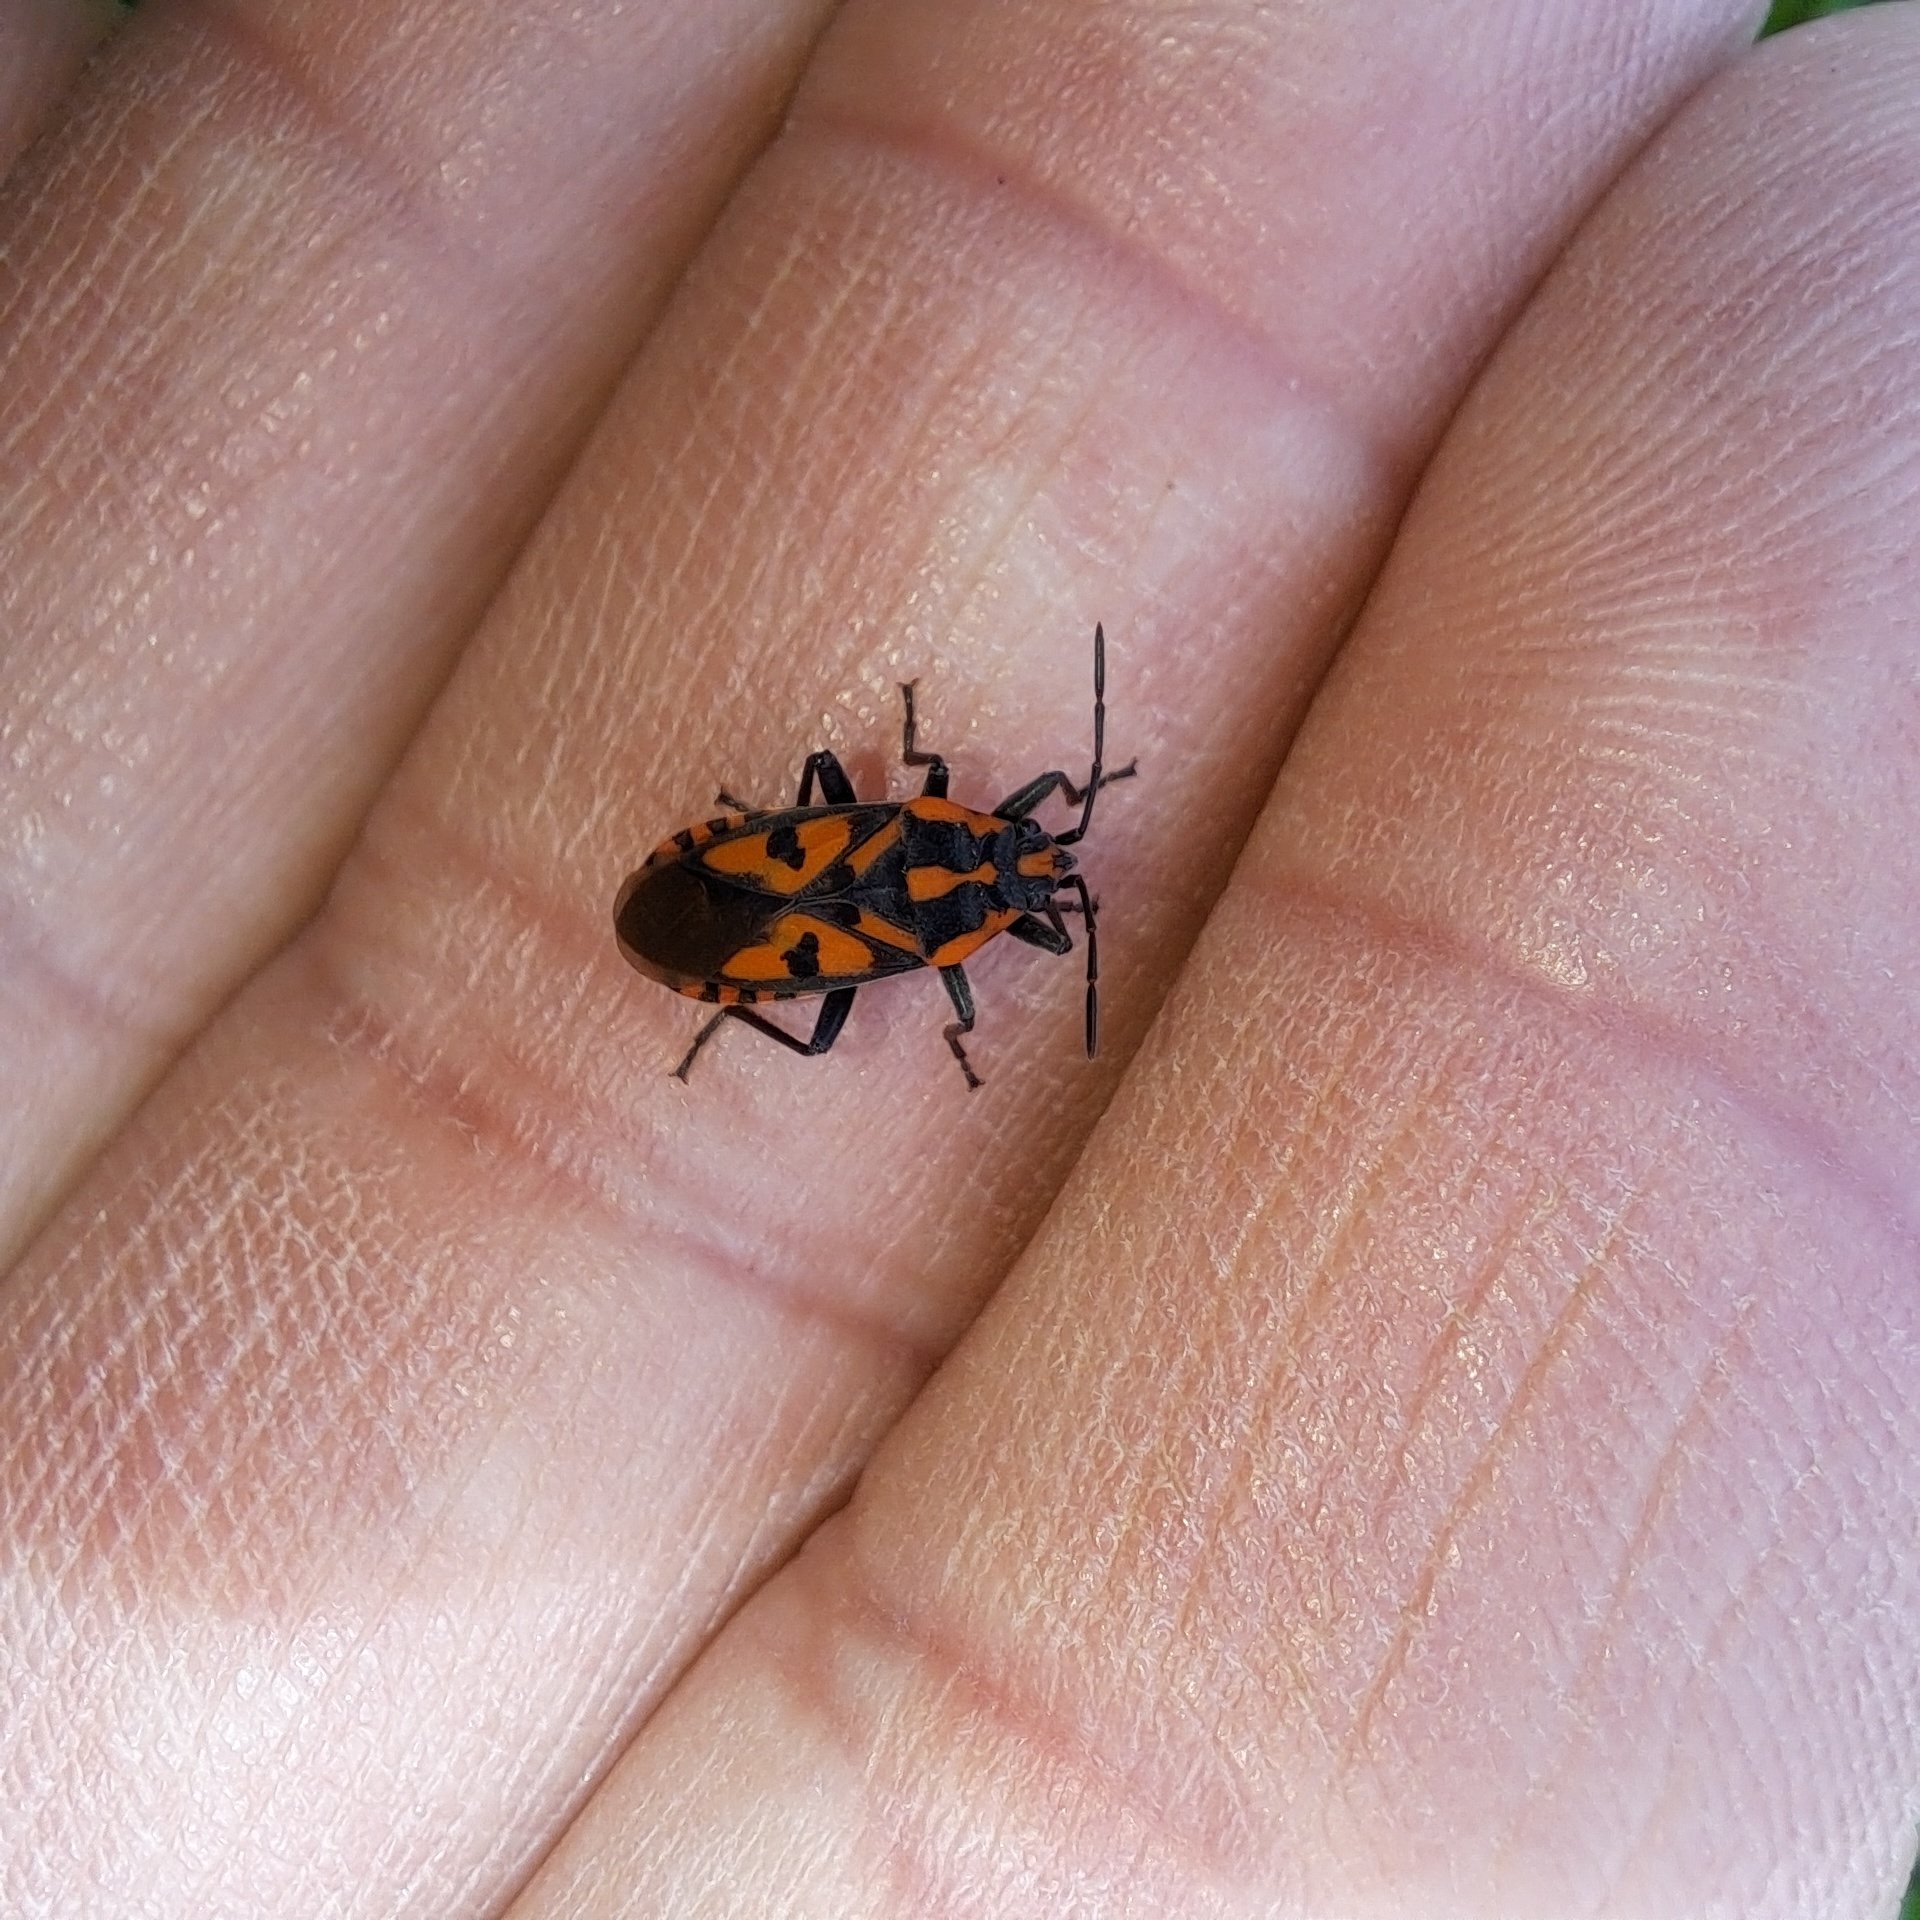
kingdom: Animalia
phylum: Arthropoda
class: Insecta
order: Hemiptera
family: Lygaeidae
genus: Spilostethus
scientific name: Spilostethus saxatilis
